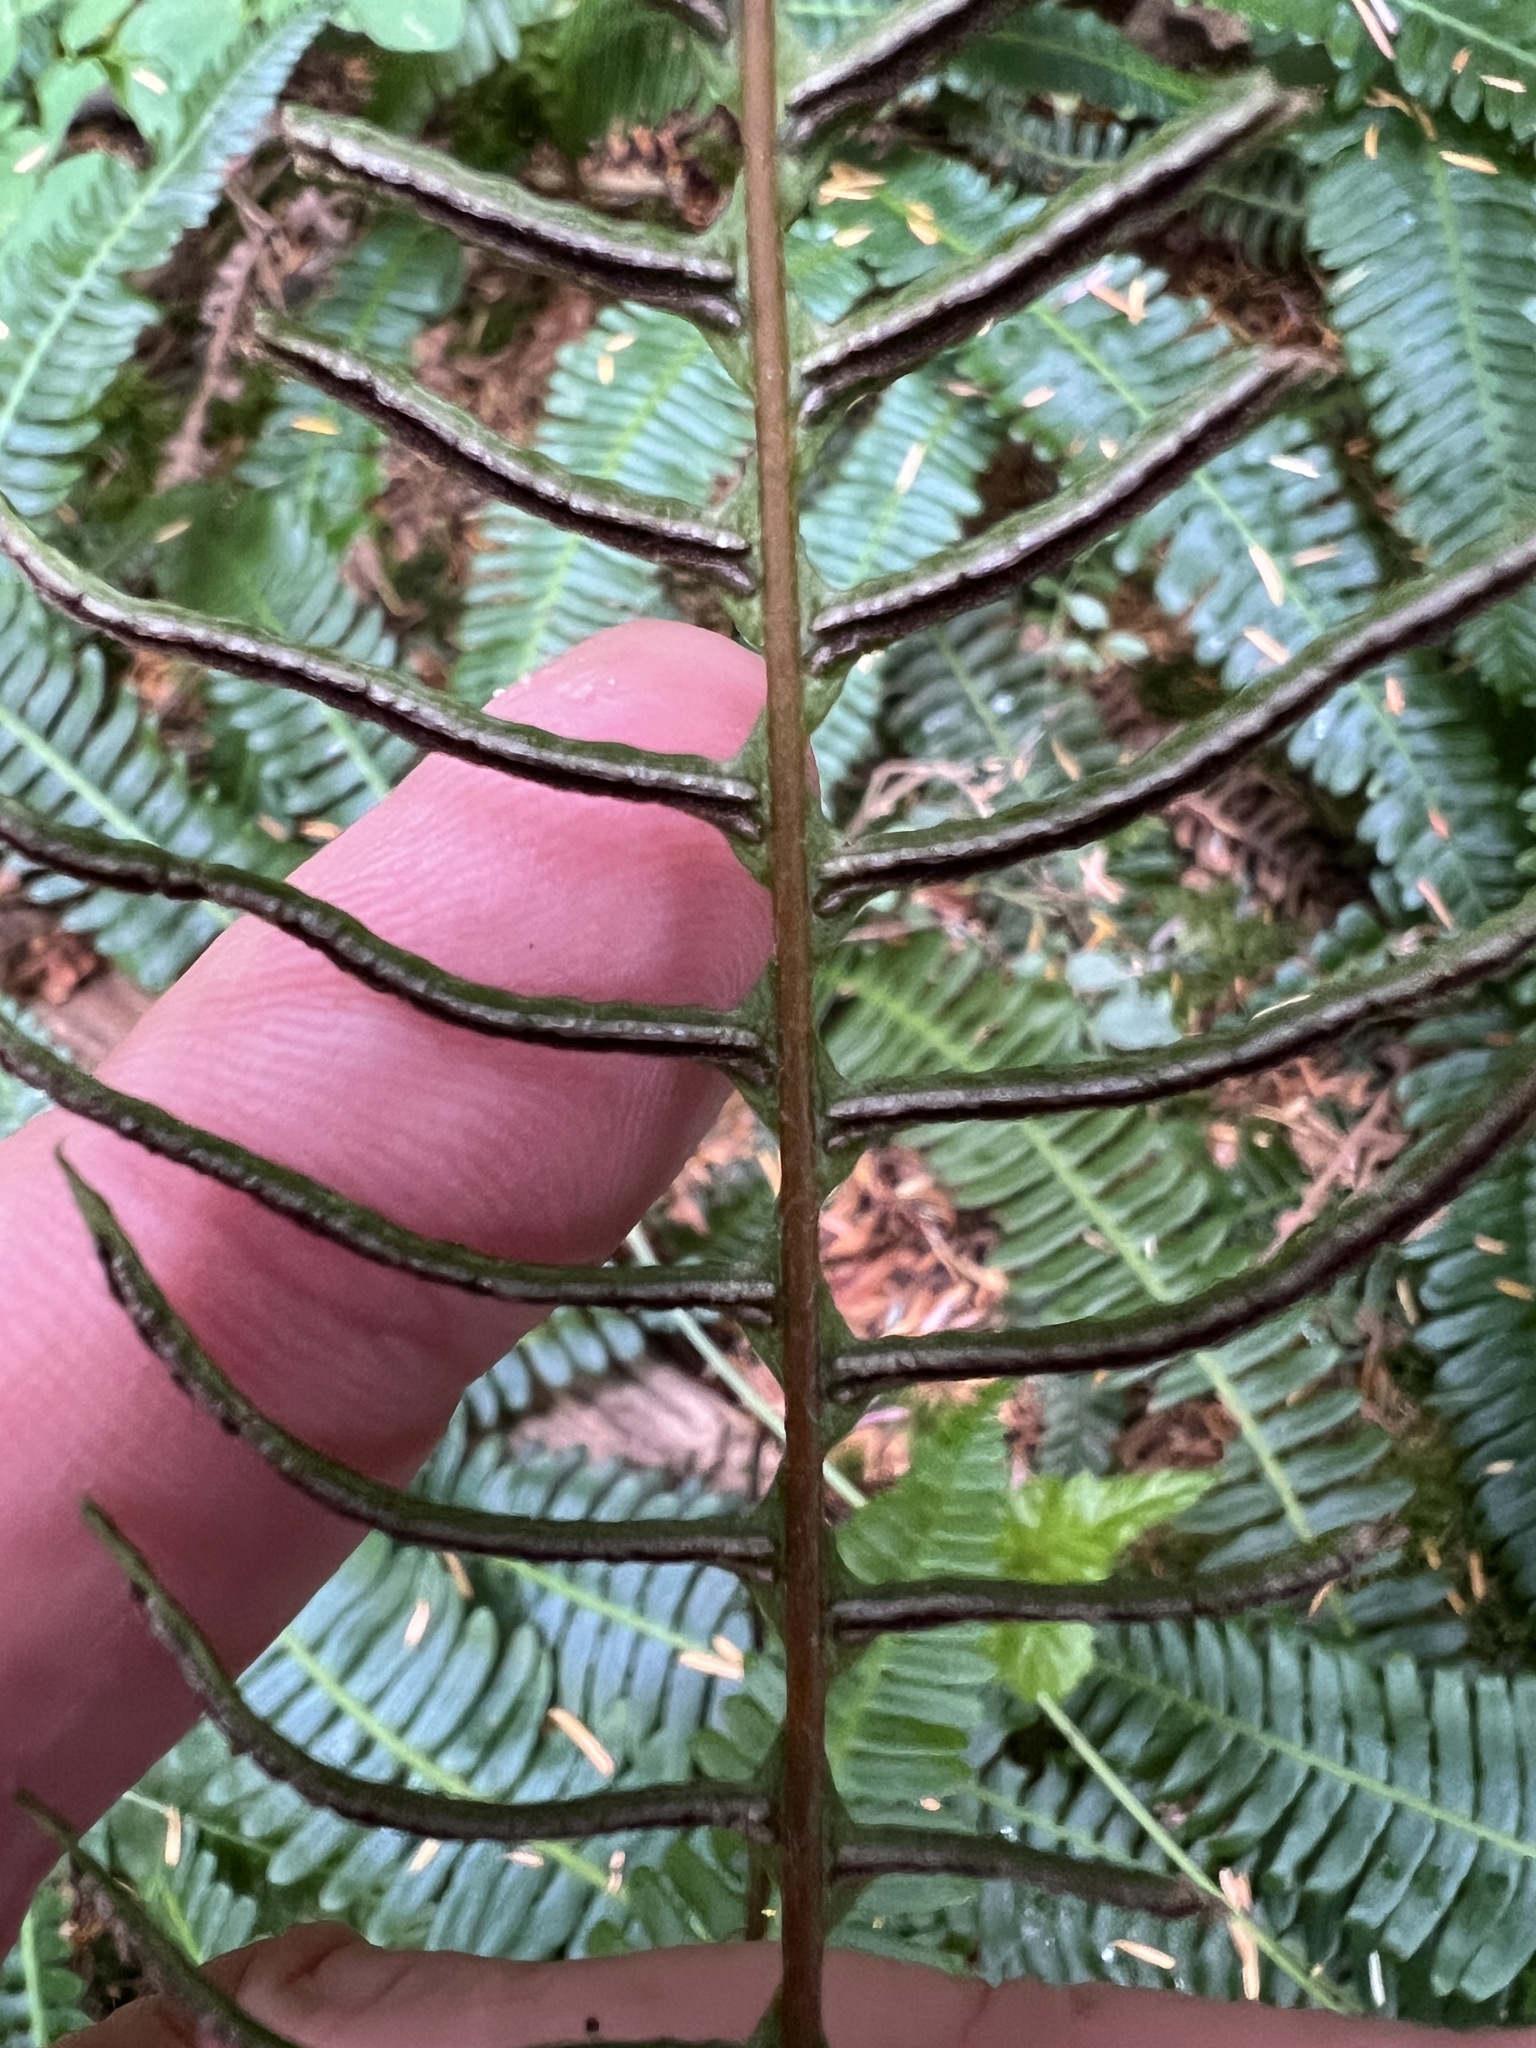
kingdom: Plantae
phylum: Tracheophyta
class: Polypodiopsida
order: Polypodiales
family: Blechnaceae
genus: Struthiopteris
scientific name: Struthiopteris spicant
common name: Deer fern
